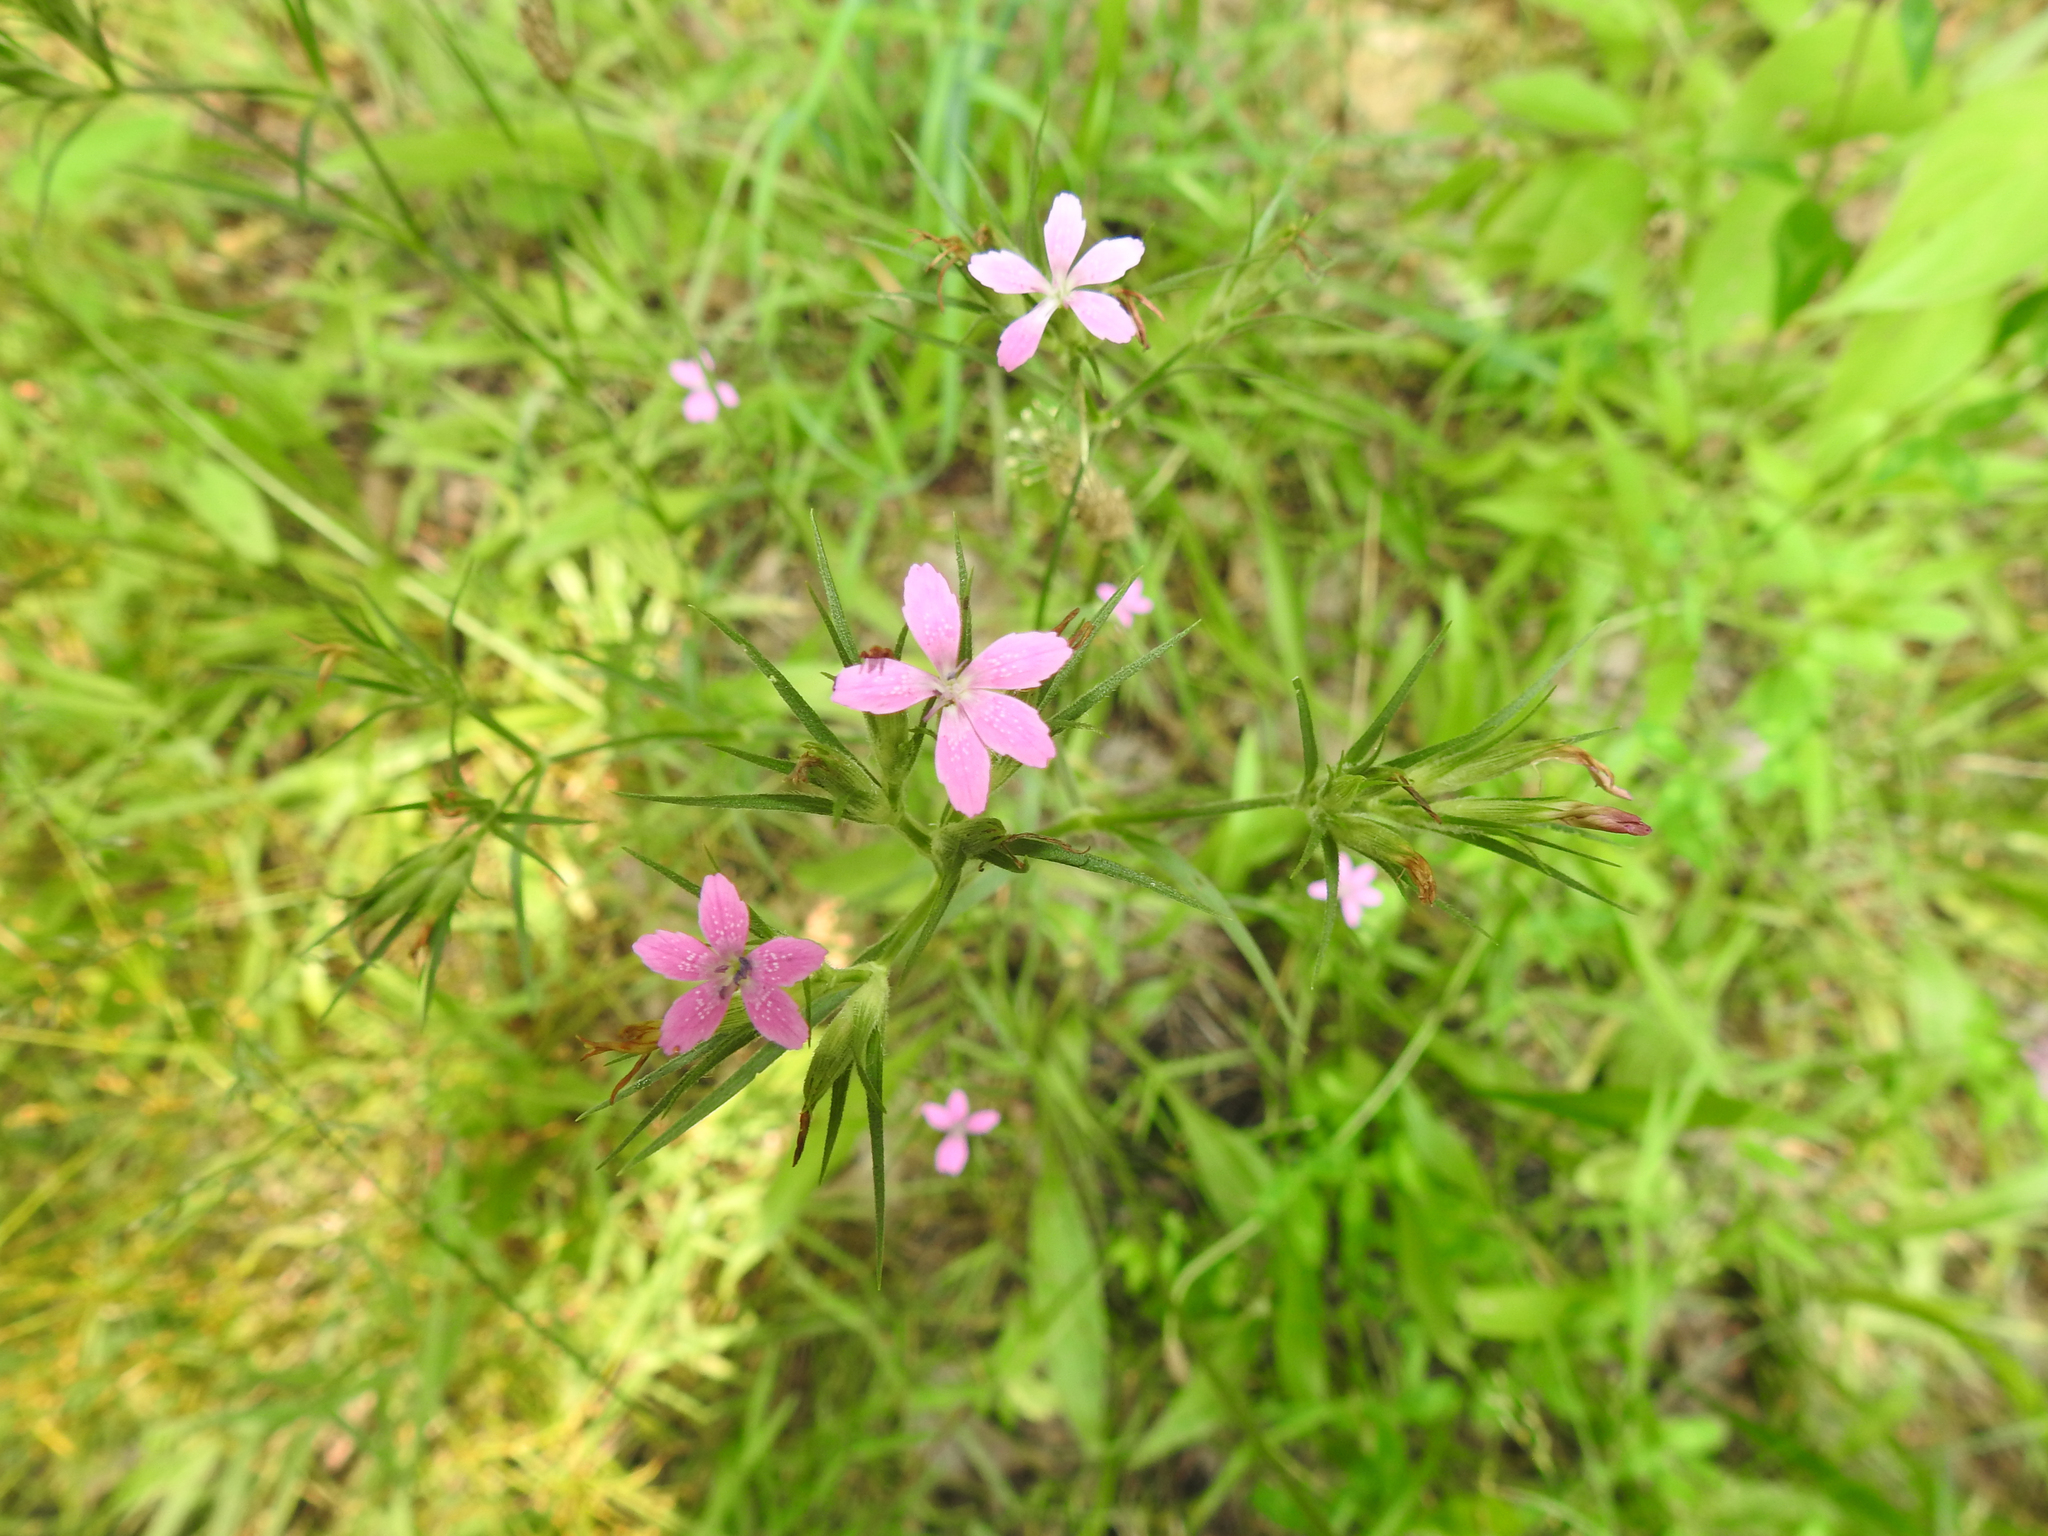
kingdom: Plantae
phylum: Tracheophyta
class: Magnoliopsida
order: Caryophyllales
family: Caryophyllaceae
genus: Dianthus
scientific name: Dianthus armeria
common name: Deptford pink
